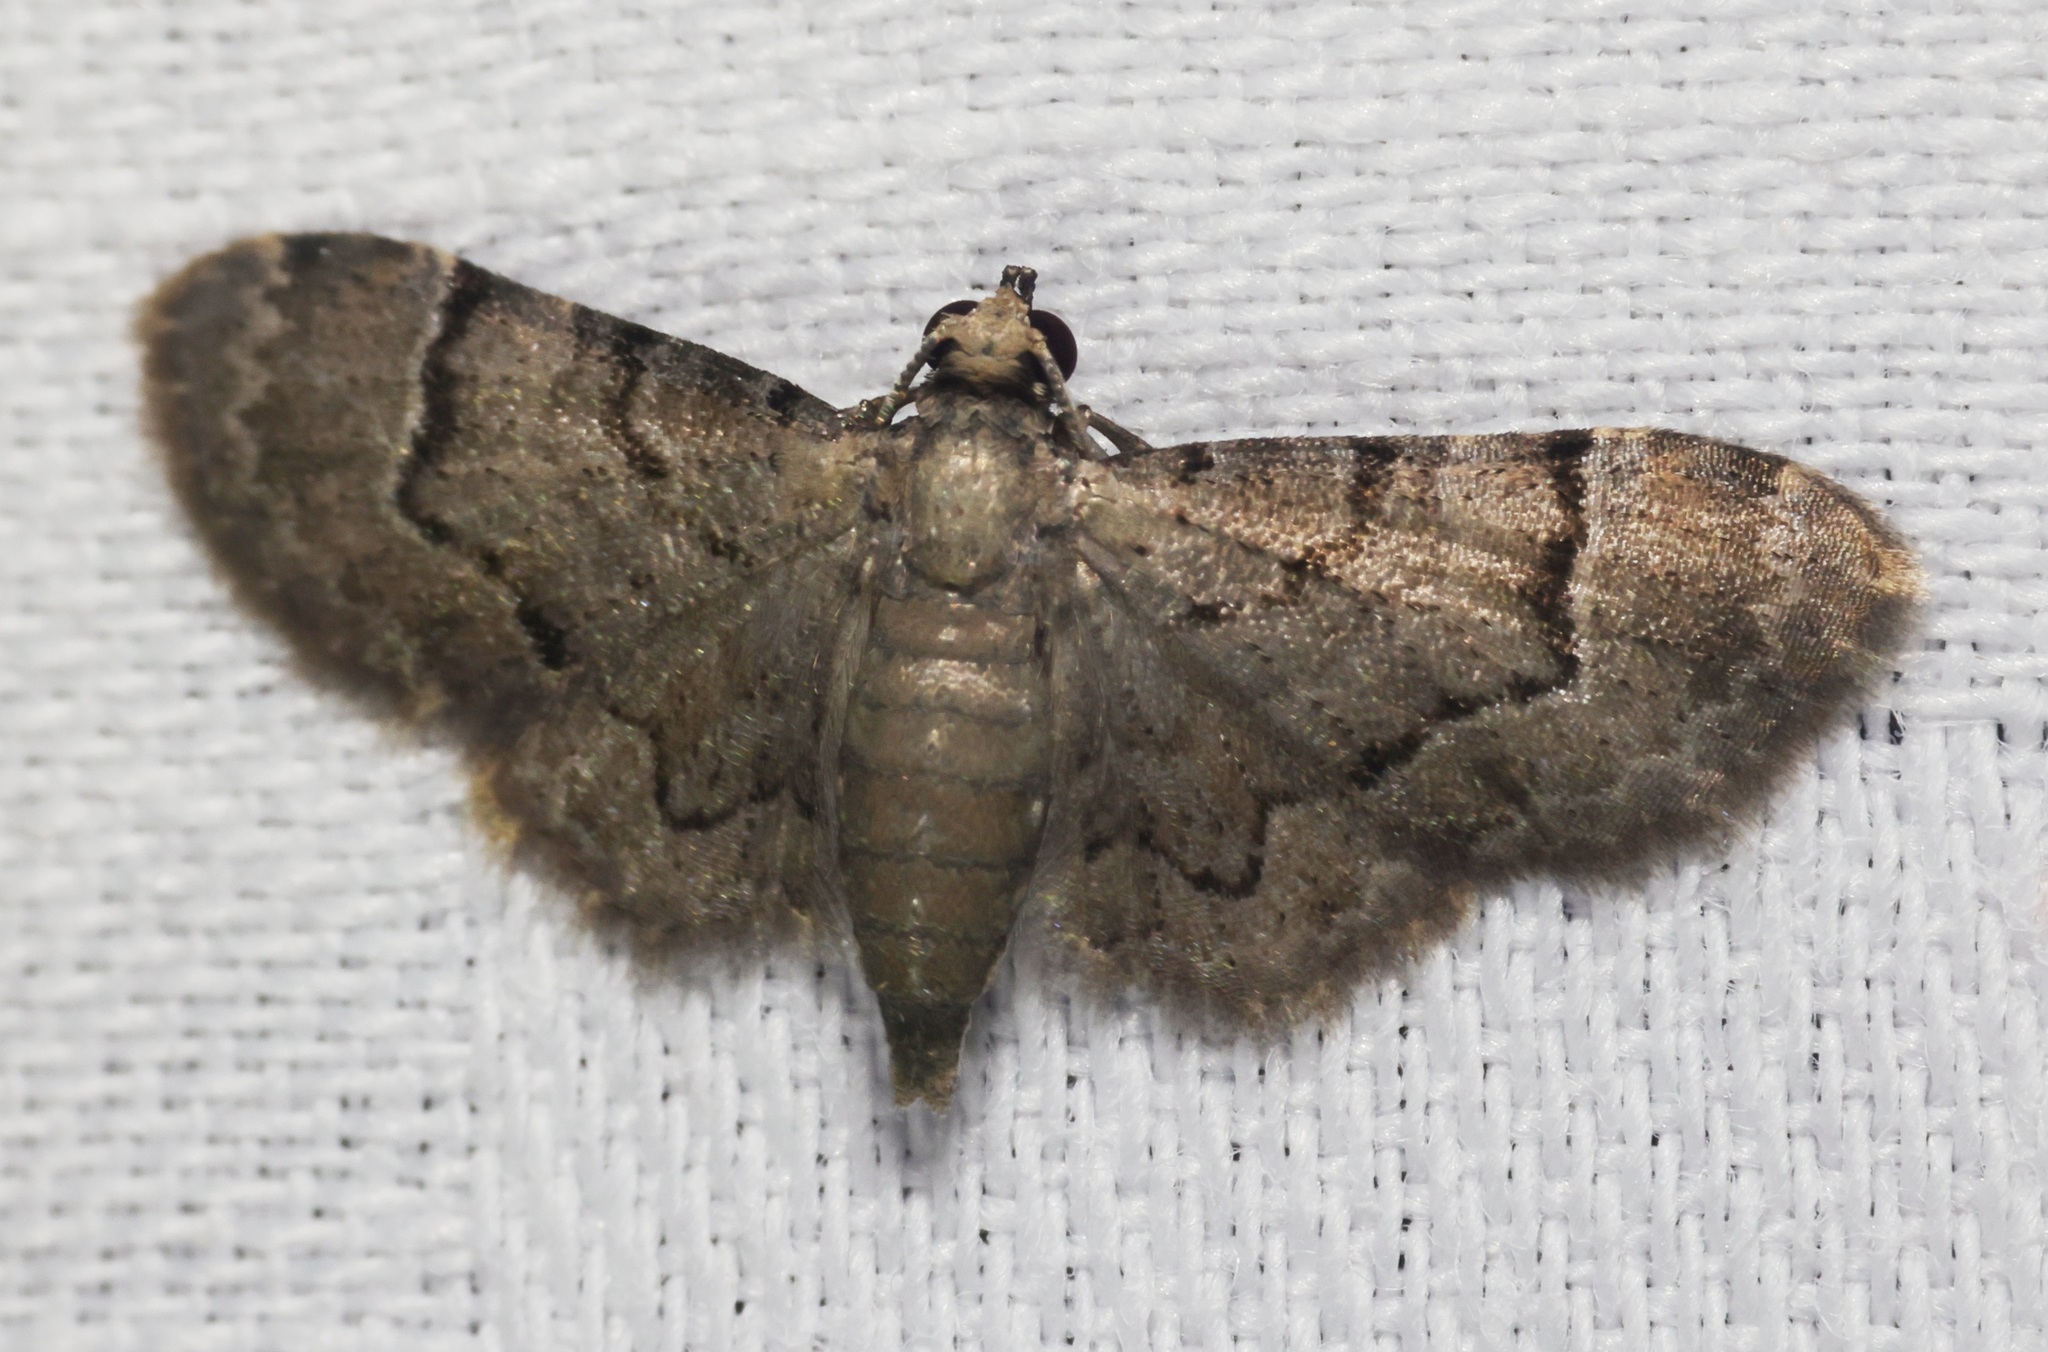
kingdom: Animalia
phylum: Arthropoda
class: Insecta
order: Lepidoptera
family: Geometridae
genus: Glaucoclystis
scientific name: Glaucoclystis sinuosa
